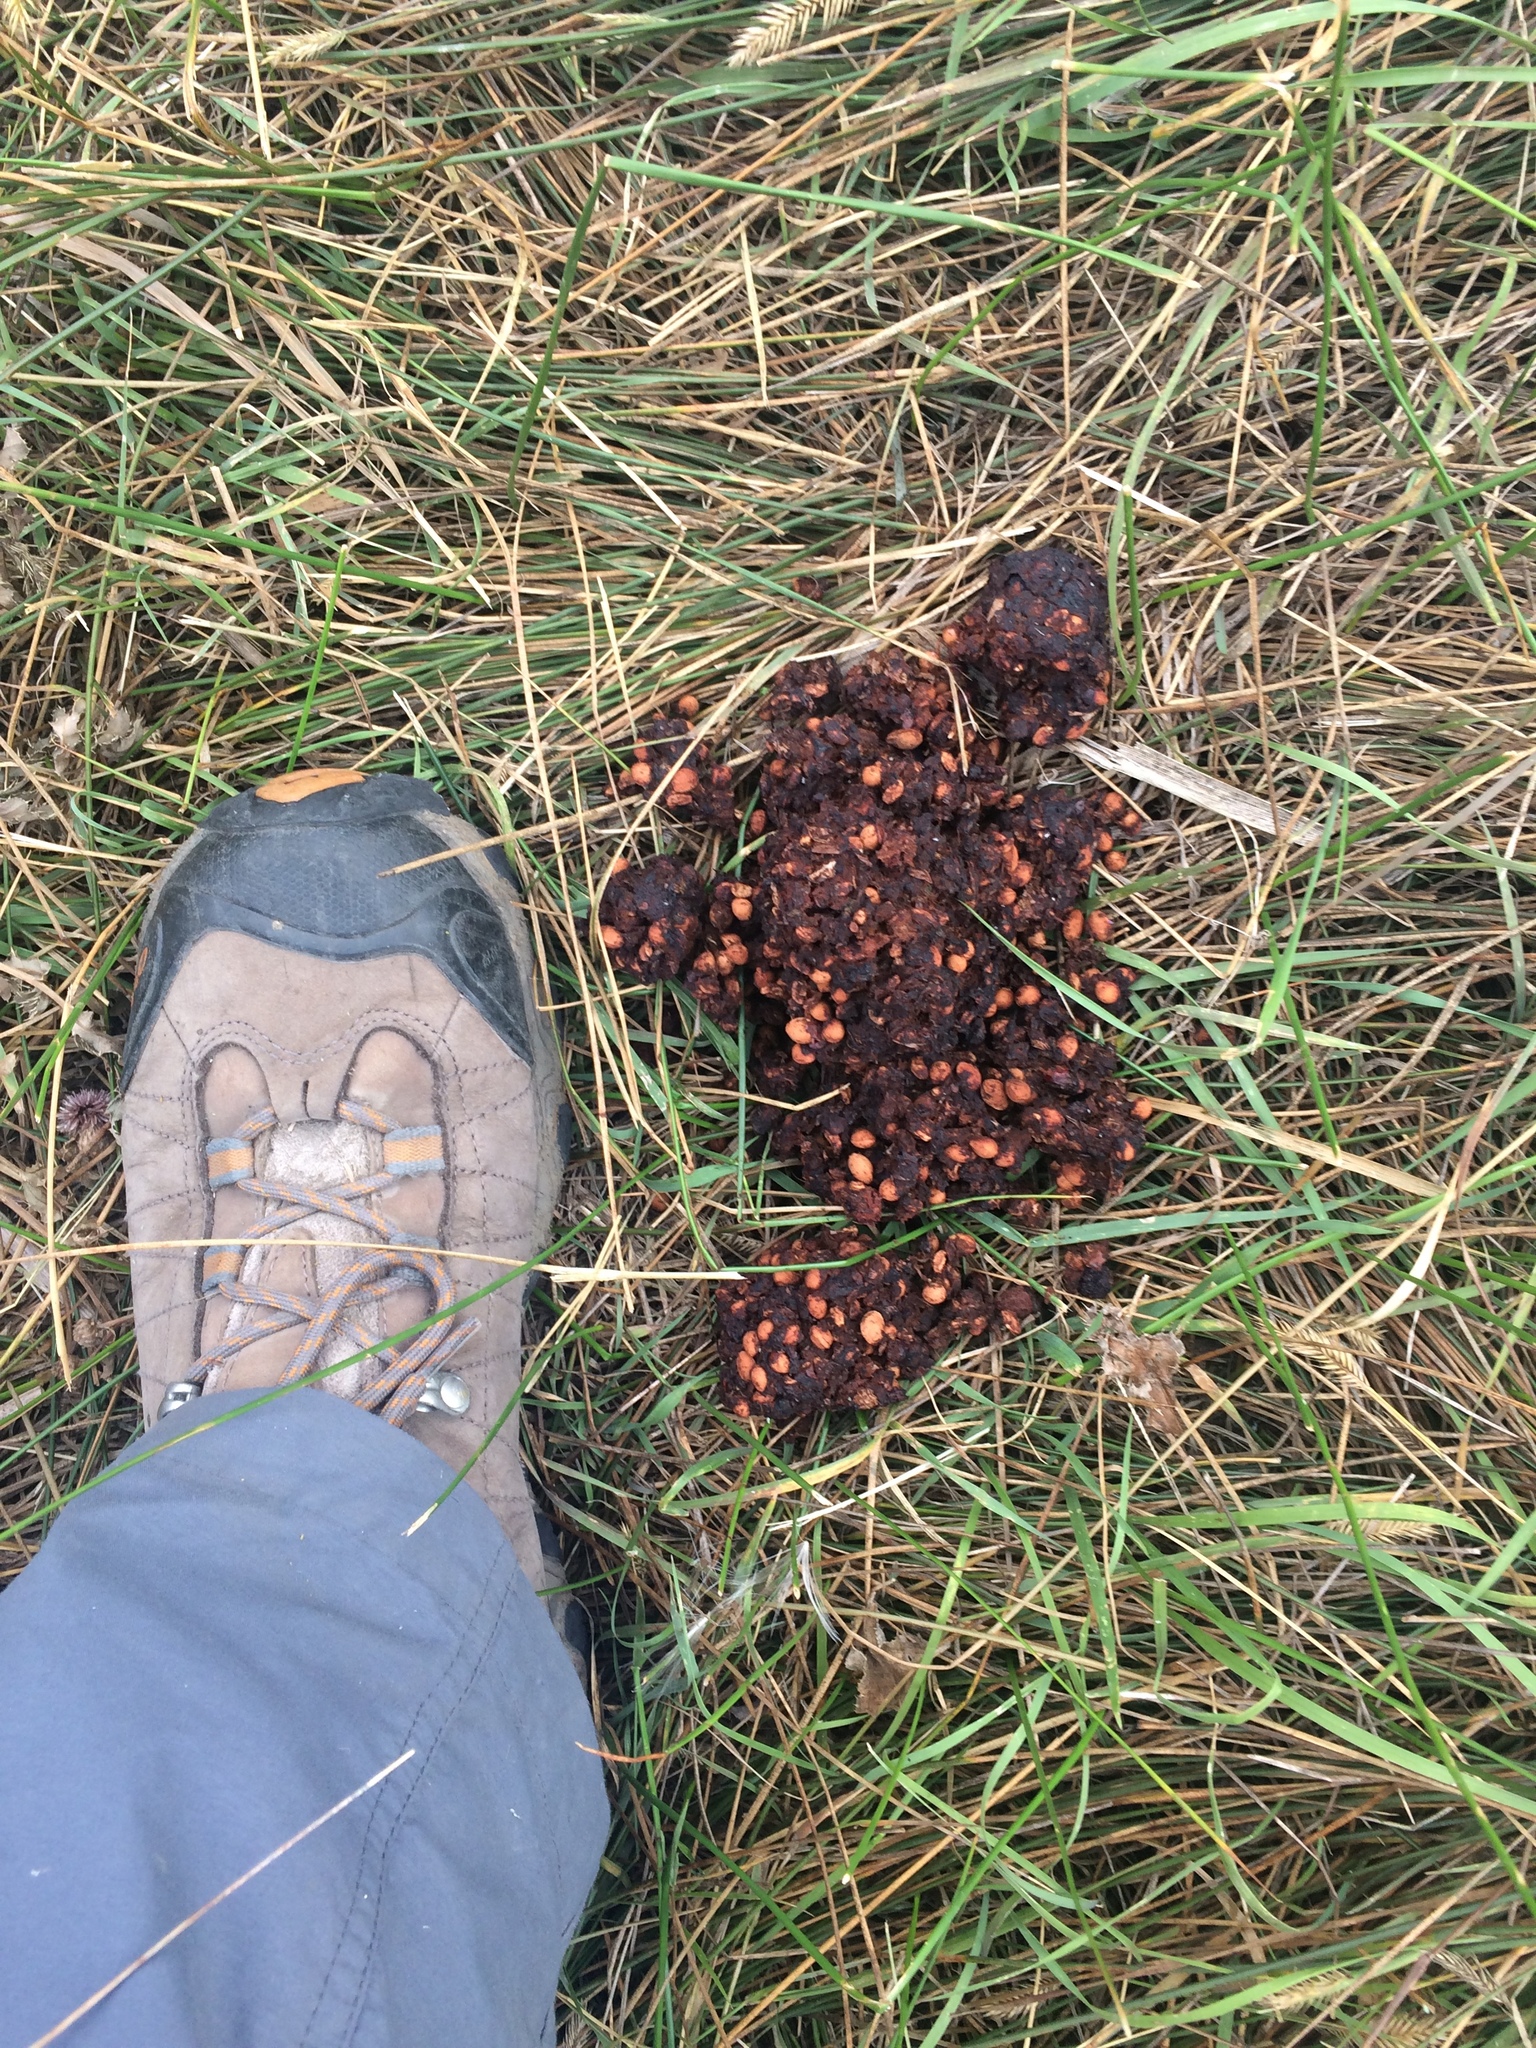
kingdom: Animalia
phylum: Chordata
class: Mammalia
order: Carnivora
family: Ursidae
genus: Ursus
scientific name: Ursus americanus
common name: American black bear
